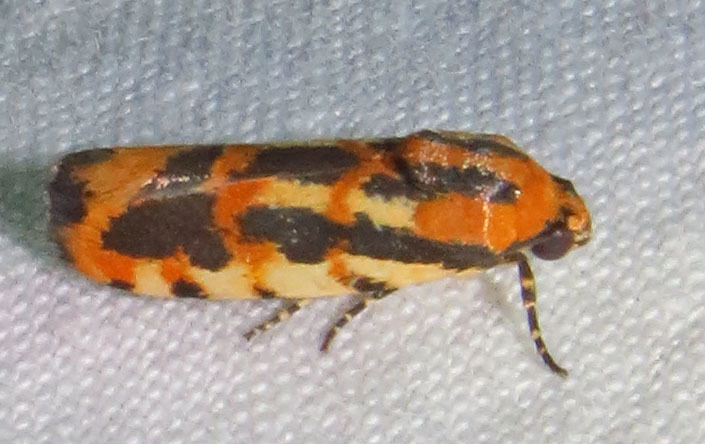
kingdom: Animalia
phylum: Arthropoda
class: Insecta
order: Lepidoptera
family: Noctuidae
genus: Acontia
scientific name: Acontia leo
